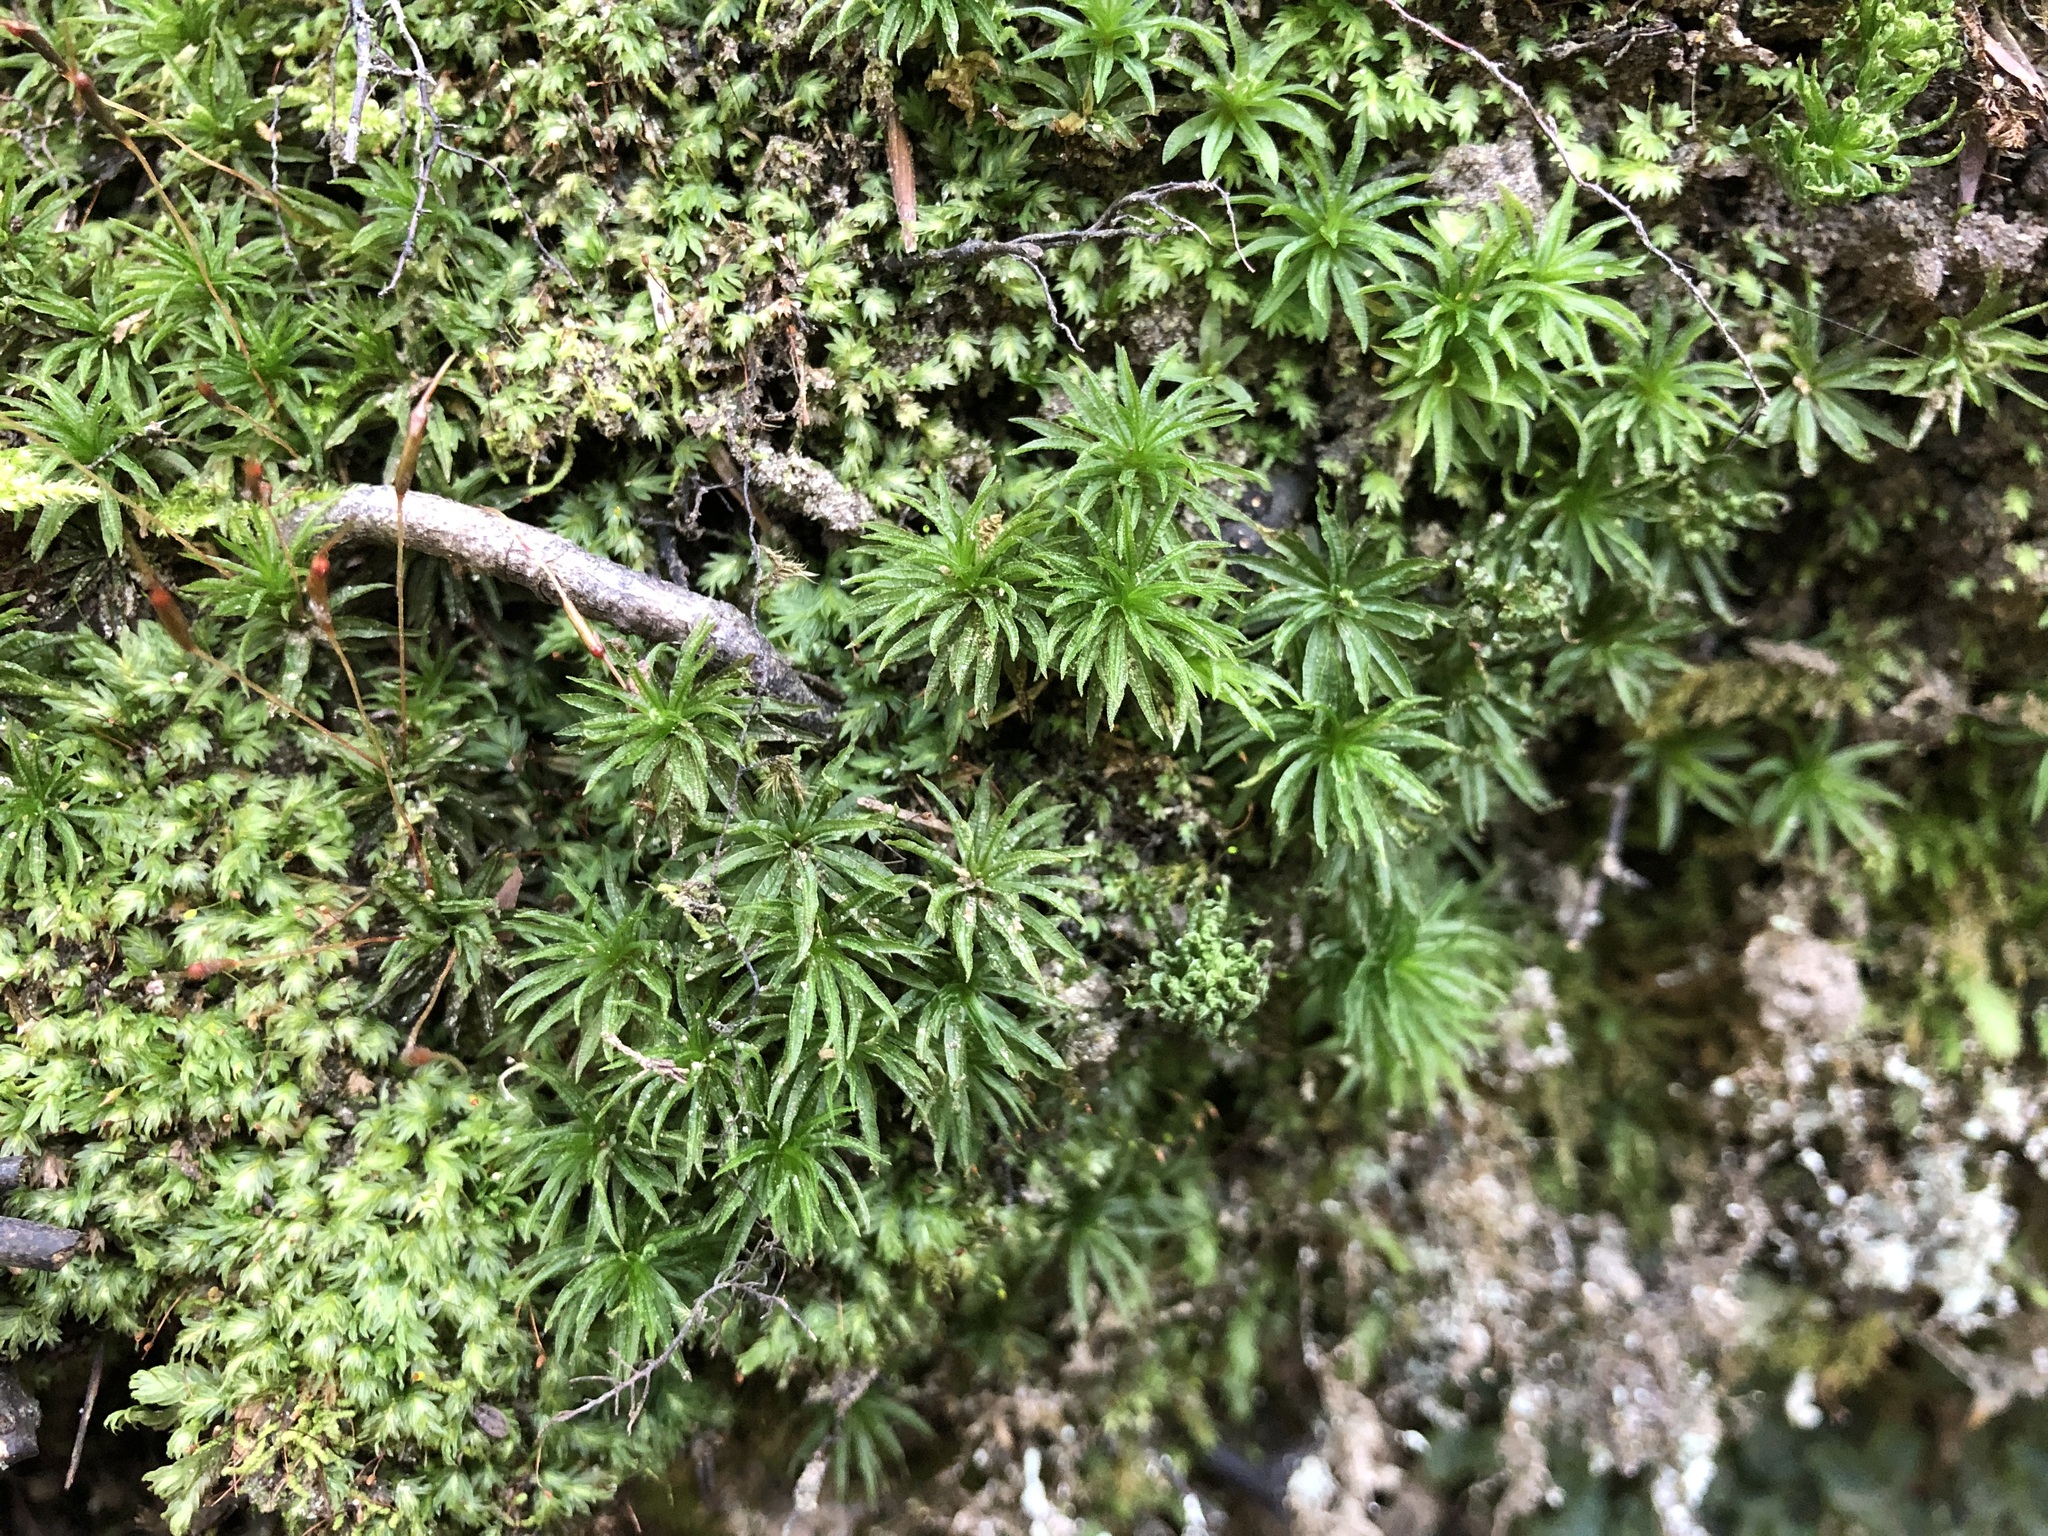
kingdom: Plantae
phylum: Bryophyta
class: Polytrichopsida
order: Polytrichales
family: Polytrichaceae
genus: Atrichum
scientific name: Atrichum undulatum
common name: Common smoothcap
